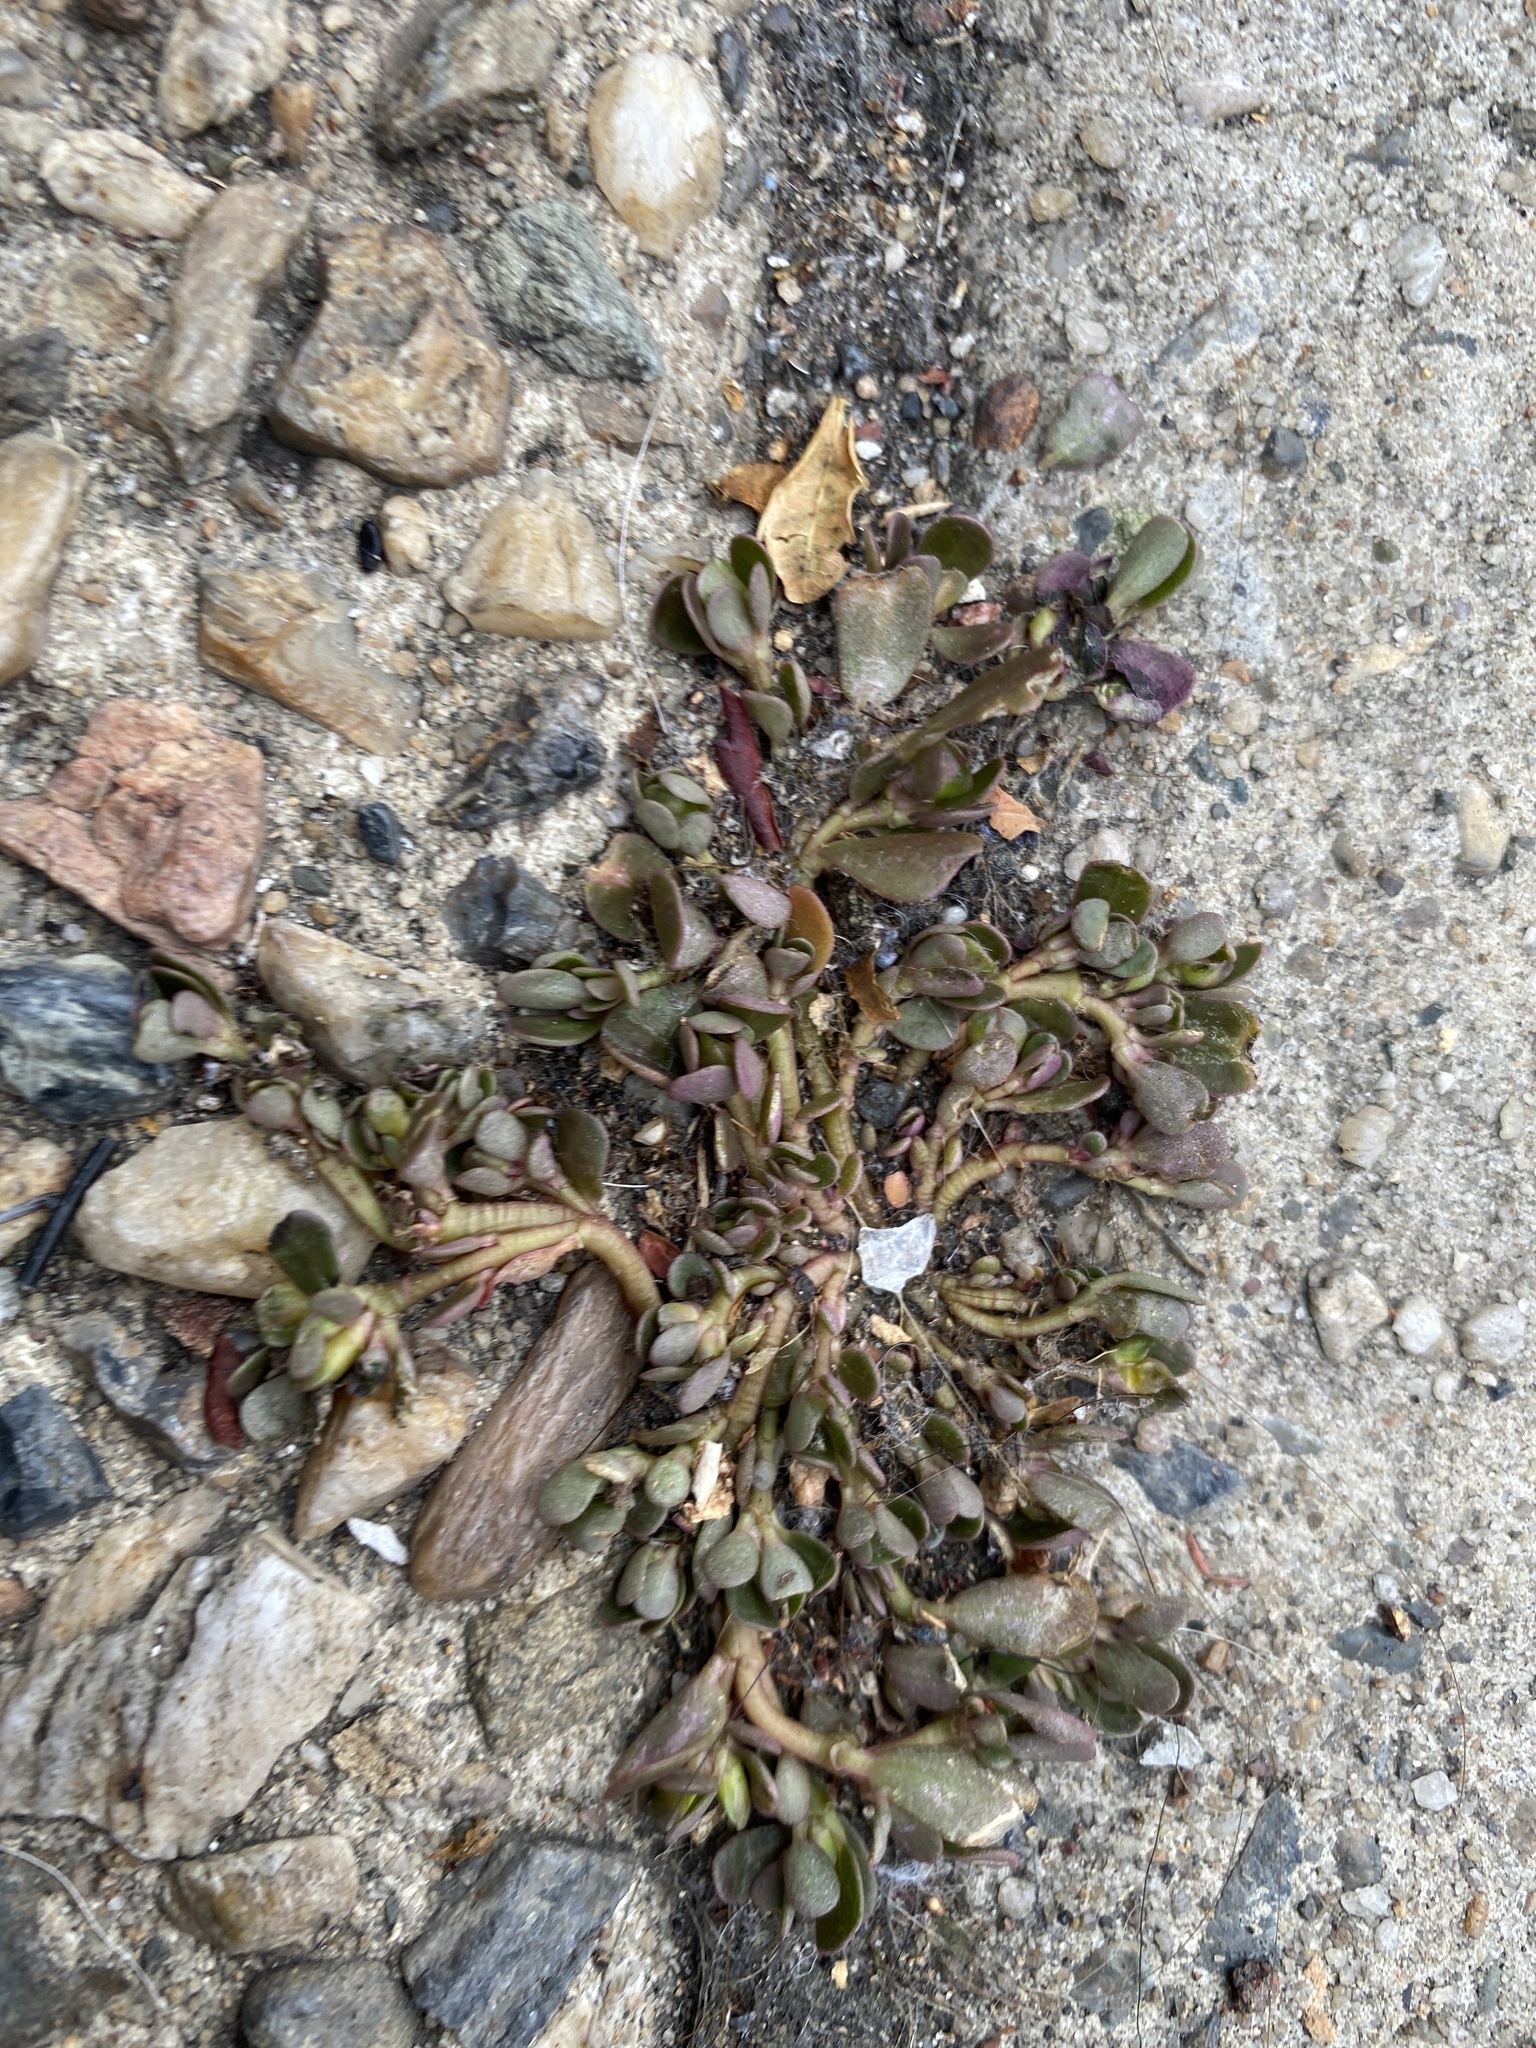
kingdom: Plantae
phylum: Tracheophyta
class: Magnoliopsida
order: Caryophyllales
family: Portulacaceae
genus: Portulaca
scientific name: Portulaca oleracea
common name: Common purslane
